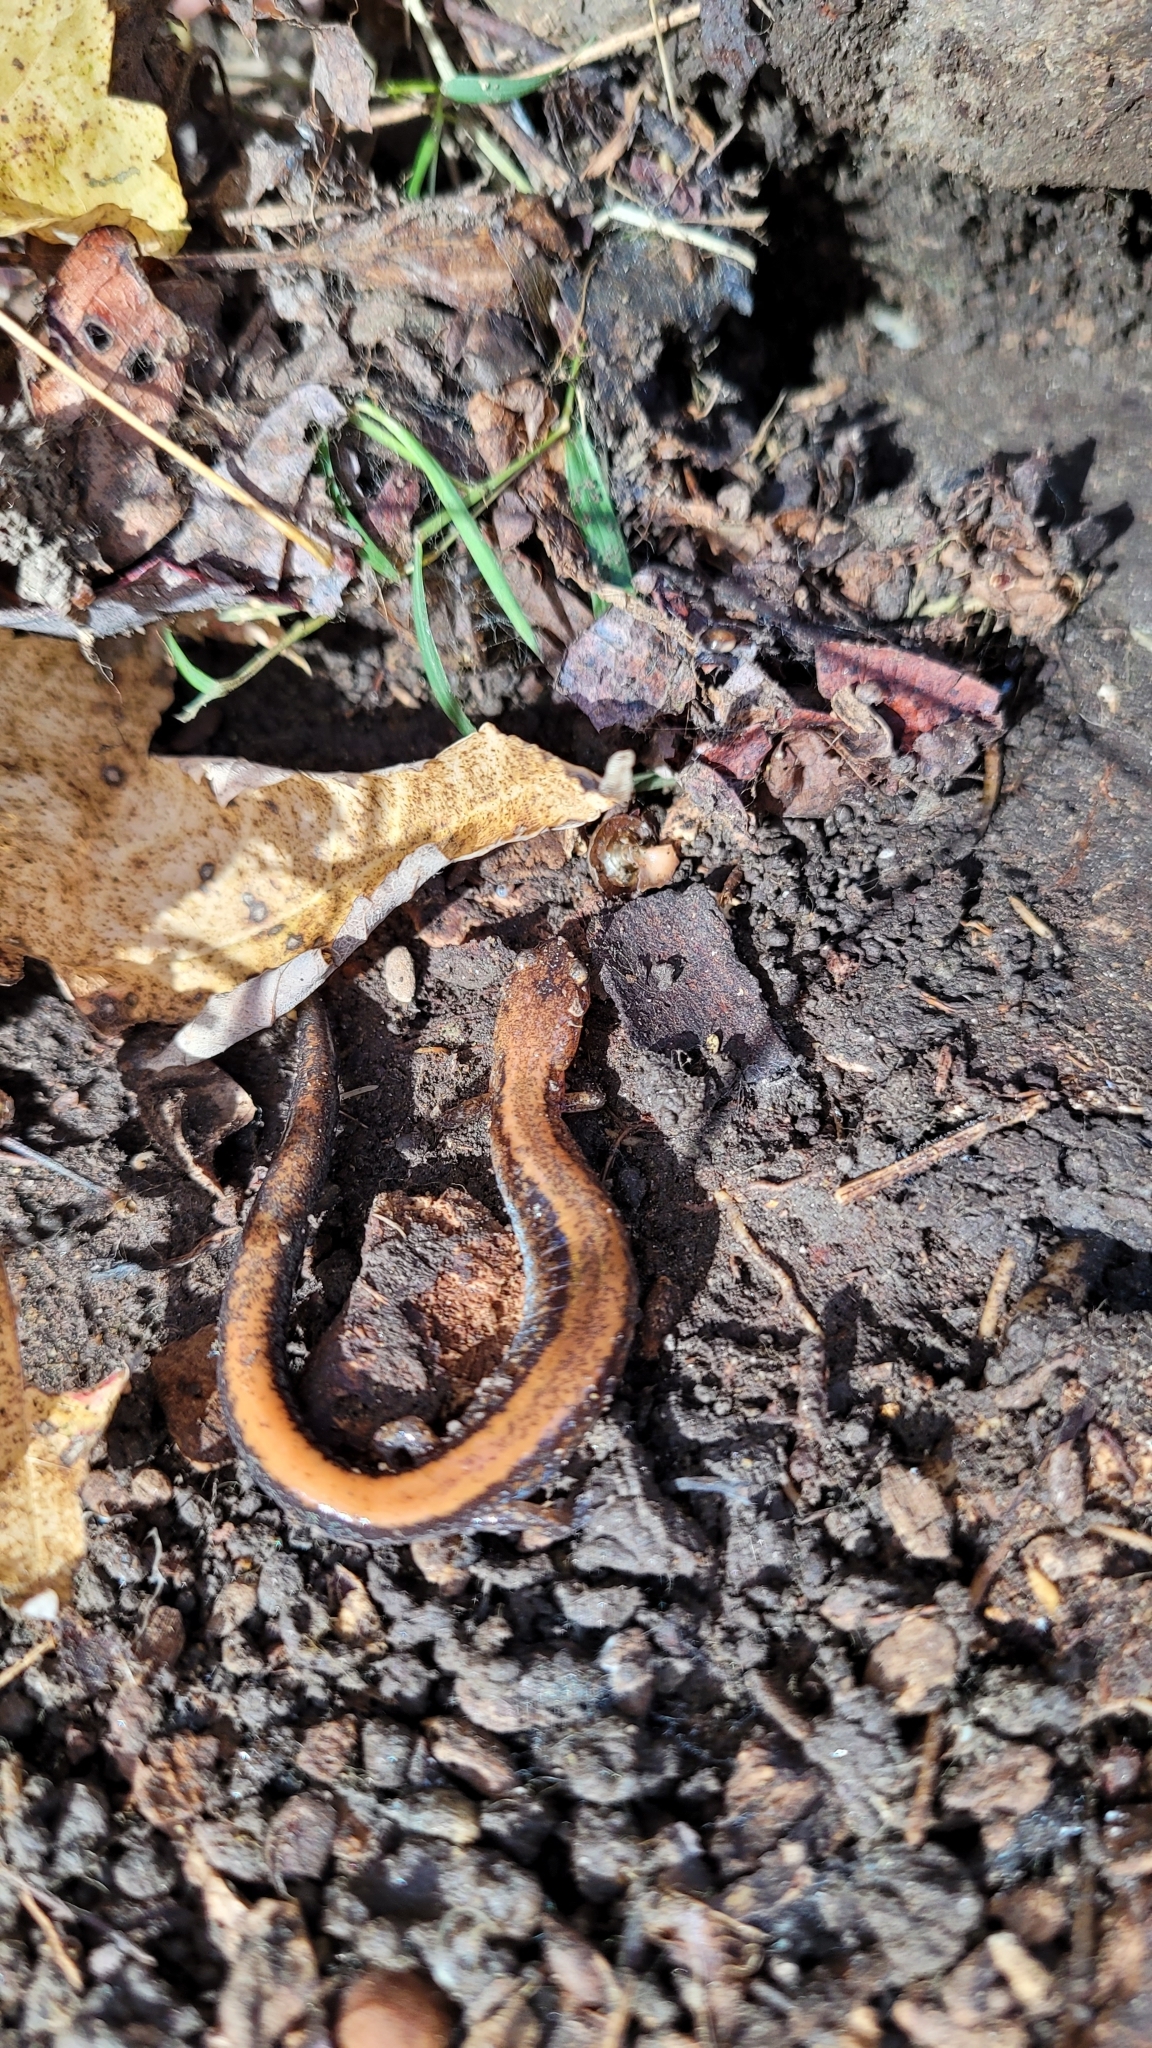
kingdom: Animalia
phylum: Chordata
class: Amphibia
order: Caudata
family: Plethodontidae
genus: Plethodon
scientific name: Plethodon cinereus
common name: Redback salamander
